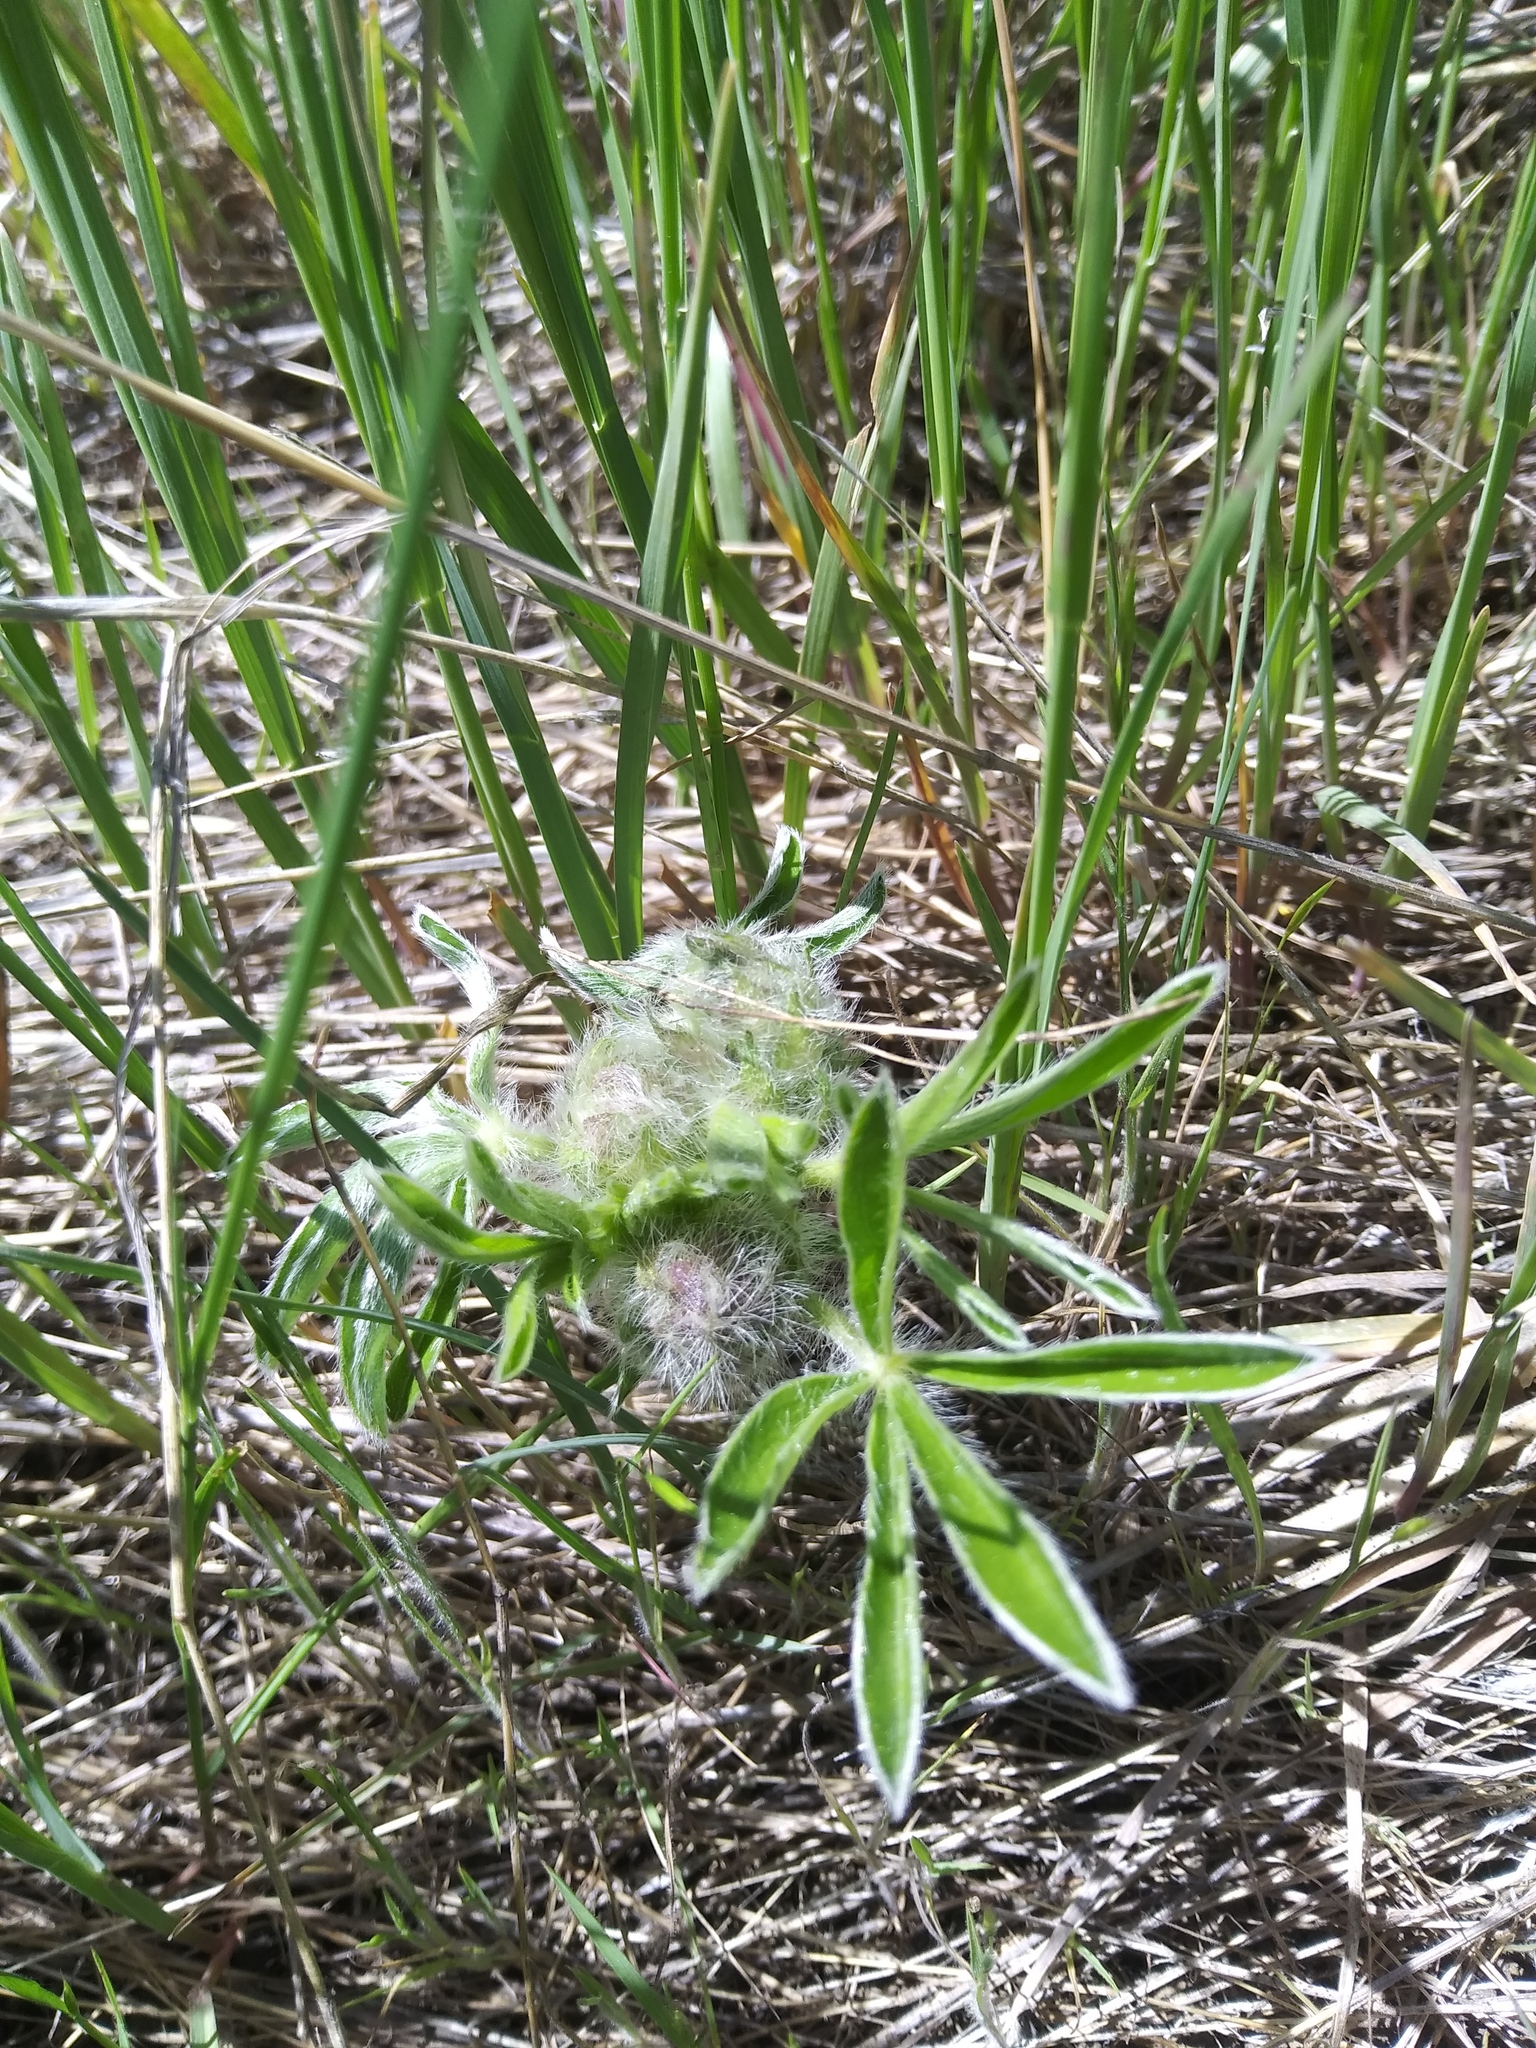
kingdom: Plantae
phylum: Tracheophyta
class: Magnoliopsida
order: Fabales
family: Fabaceae
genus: Pediomelum
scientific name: Pediomelum esculentum
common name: Indian-turnip
